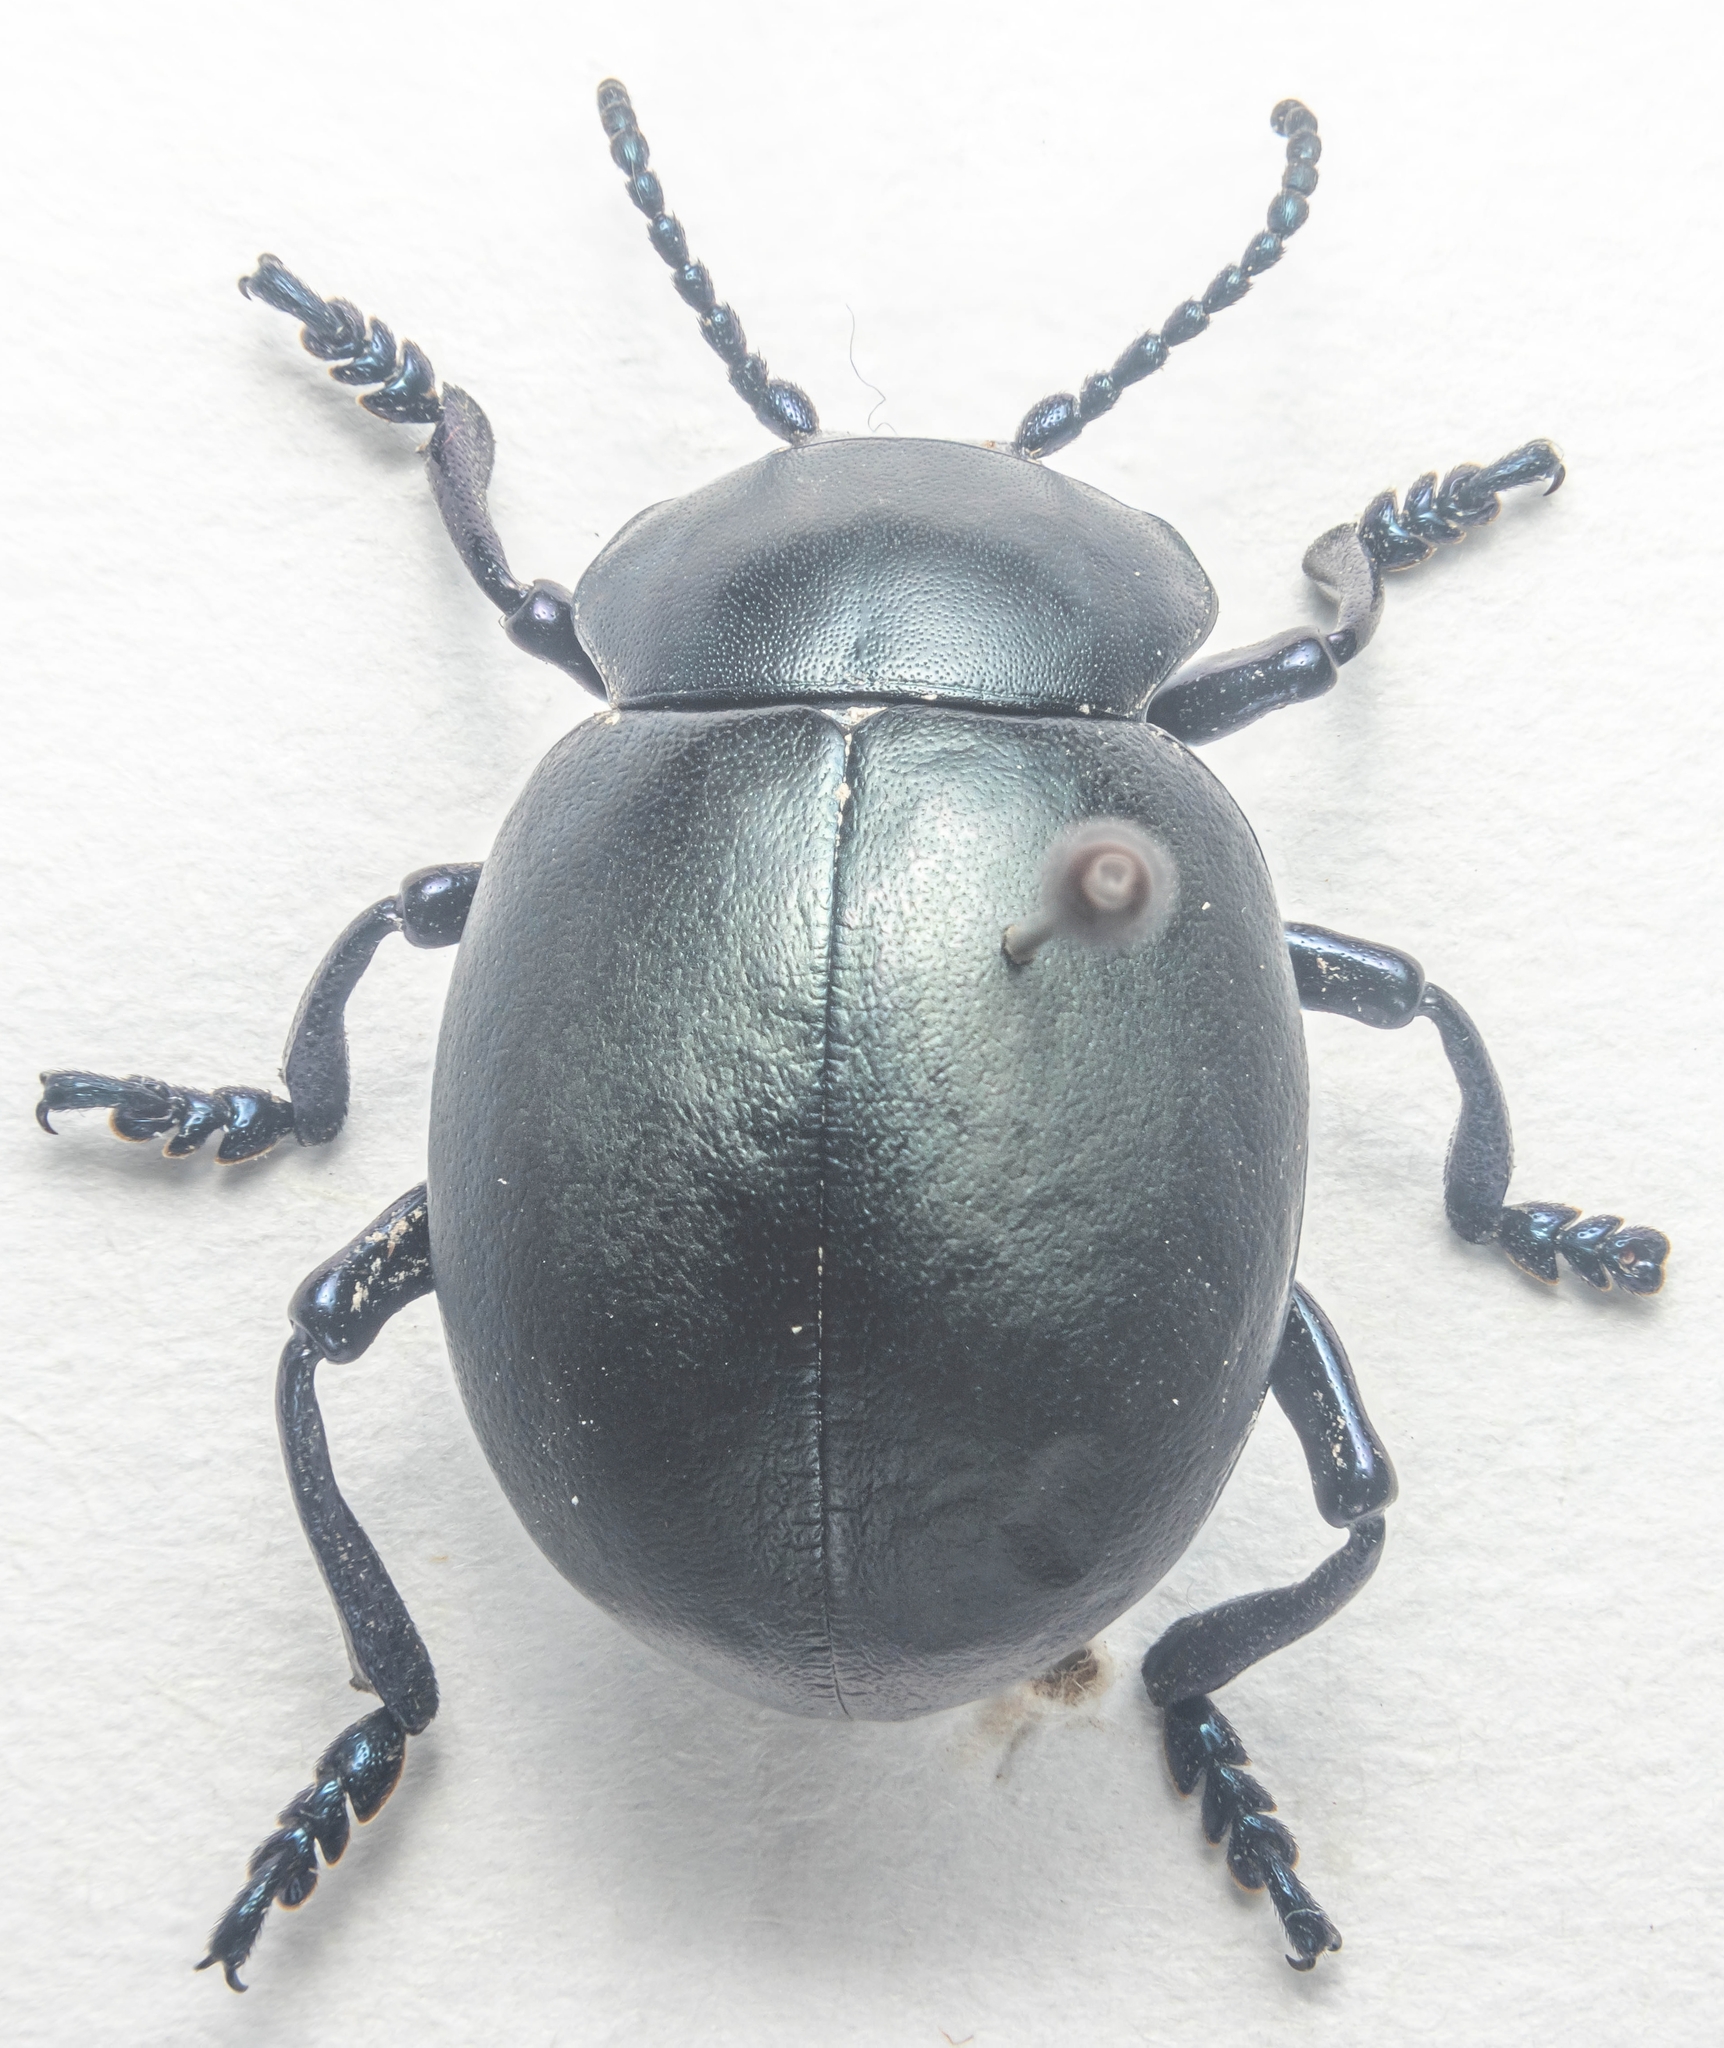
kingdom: Animalia
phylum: Arthropoda
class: Insecta
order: Coleoptera
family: Chrysomelidae
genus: Timarcha
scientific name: Timarcha tenebricosa
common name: Bloody-nosed beetle
